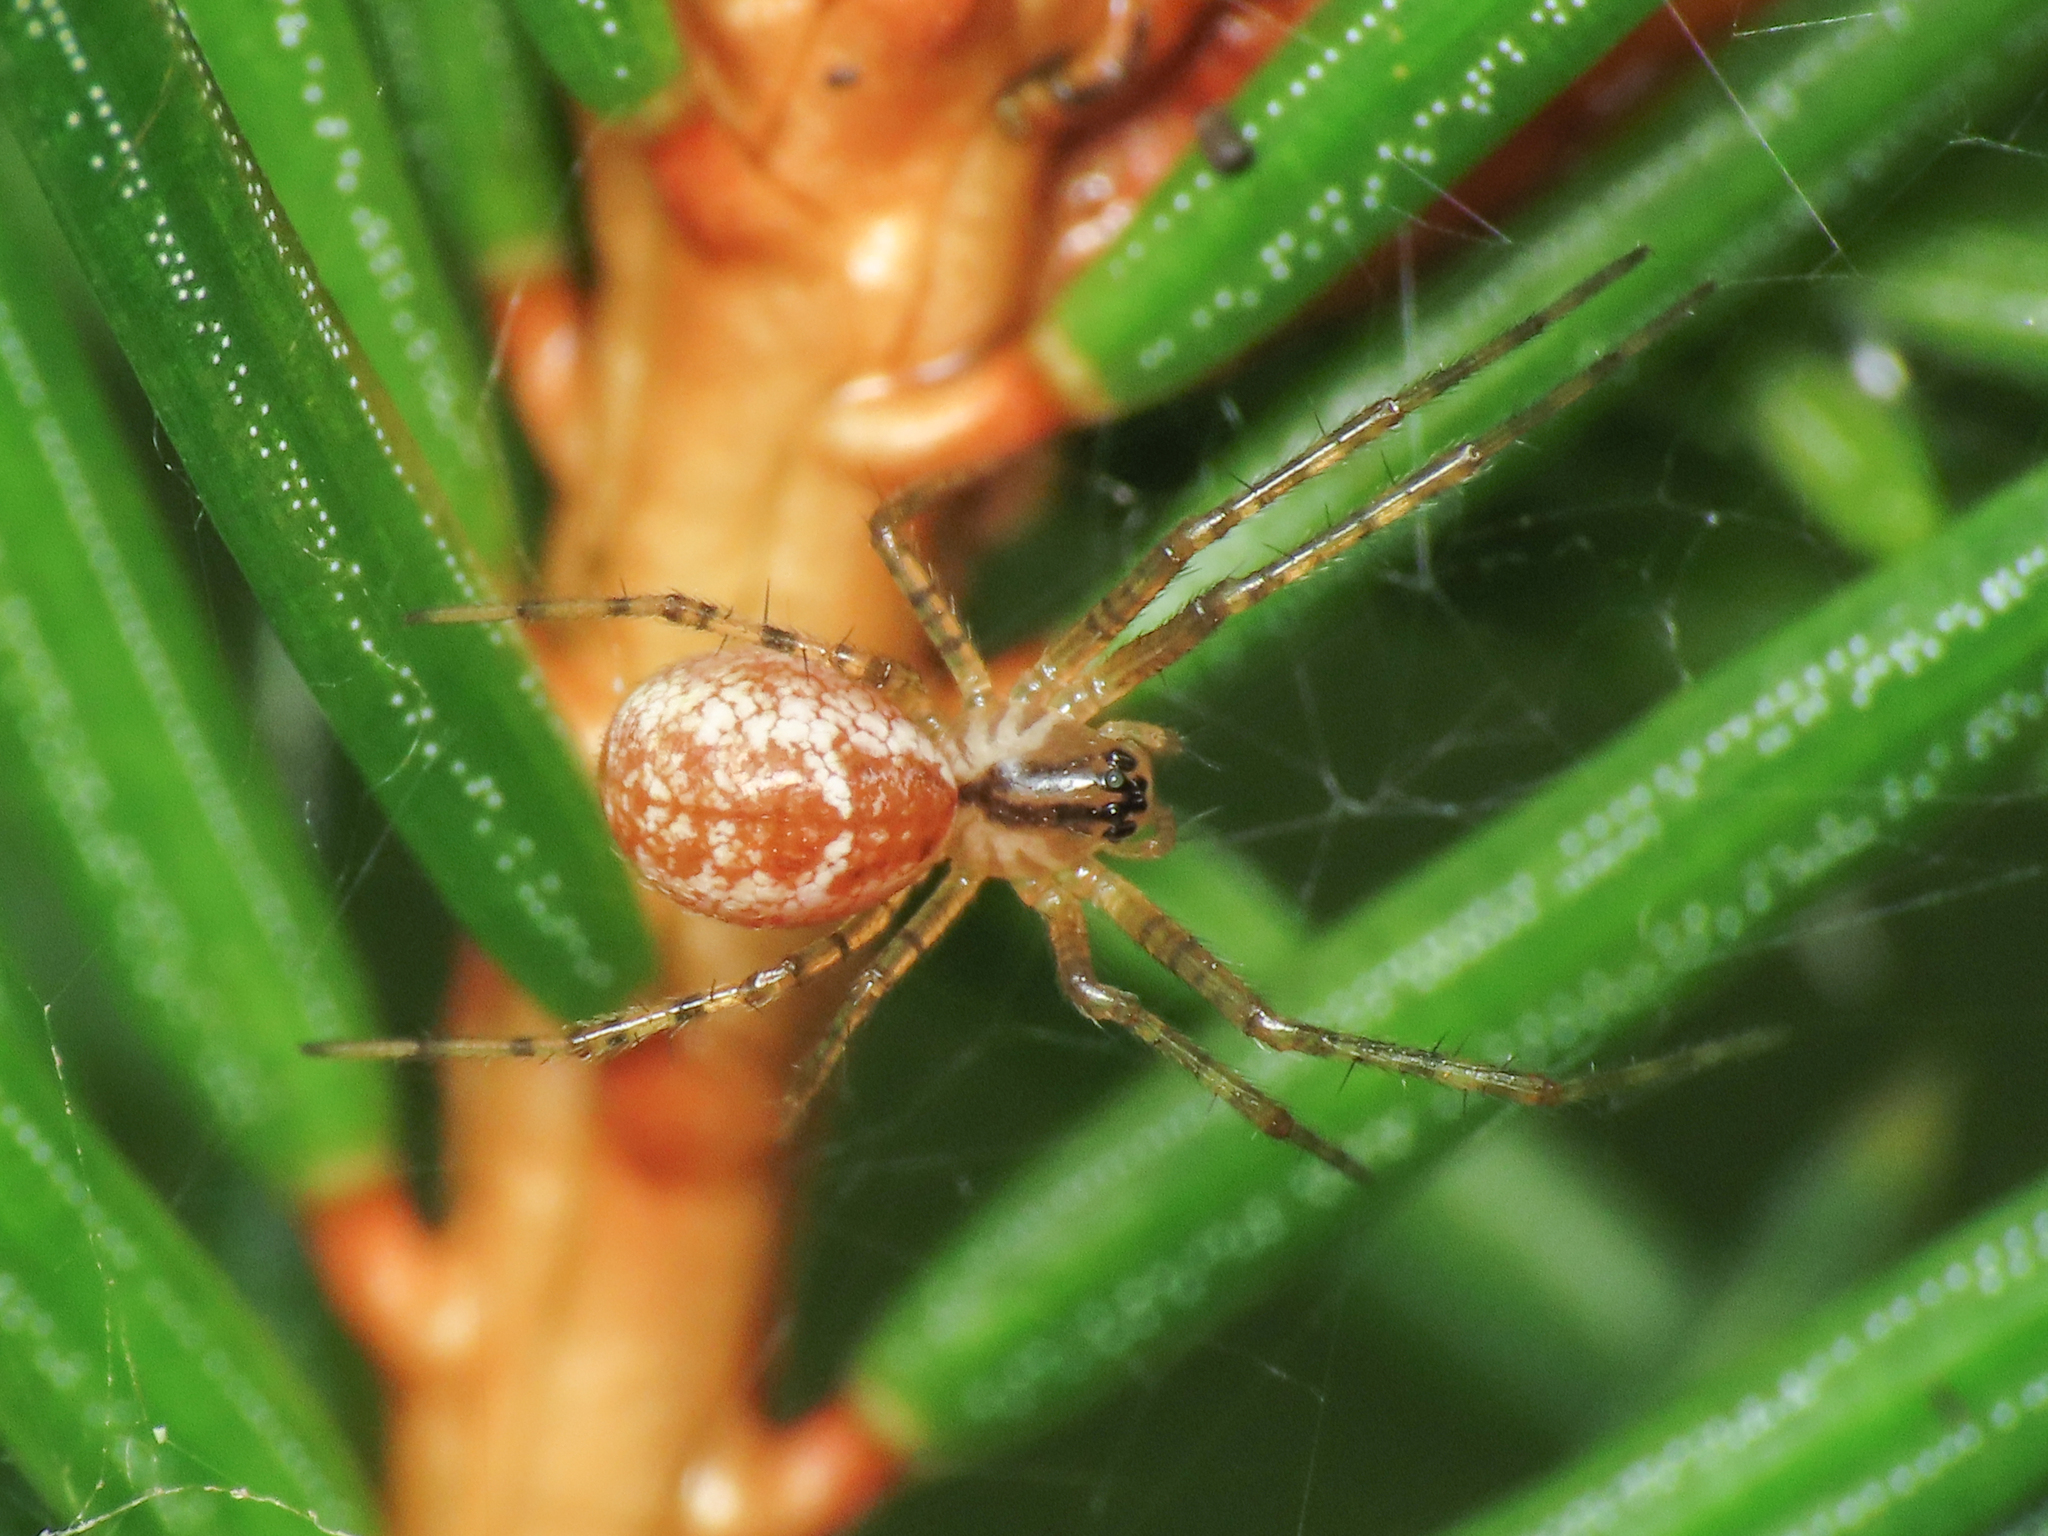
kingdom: Animalia
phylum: Arthropoda
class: Arachnida
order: Araneae
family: Linyphiidae
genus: Pityohyphantes
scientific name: Pityohyphantes phrygianus
